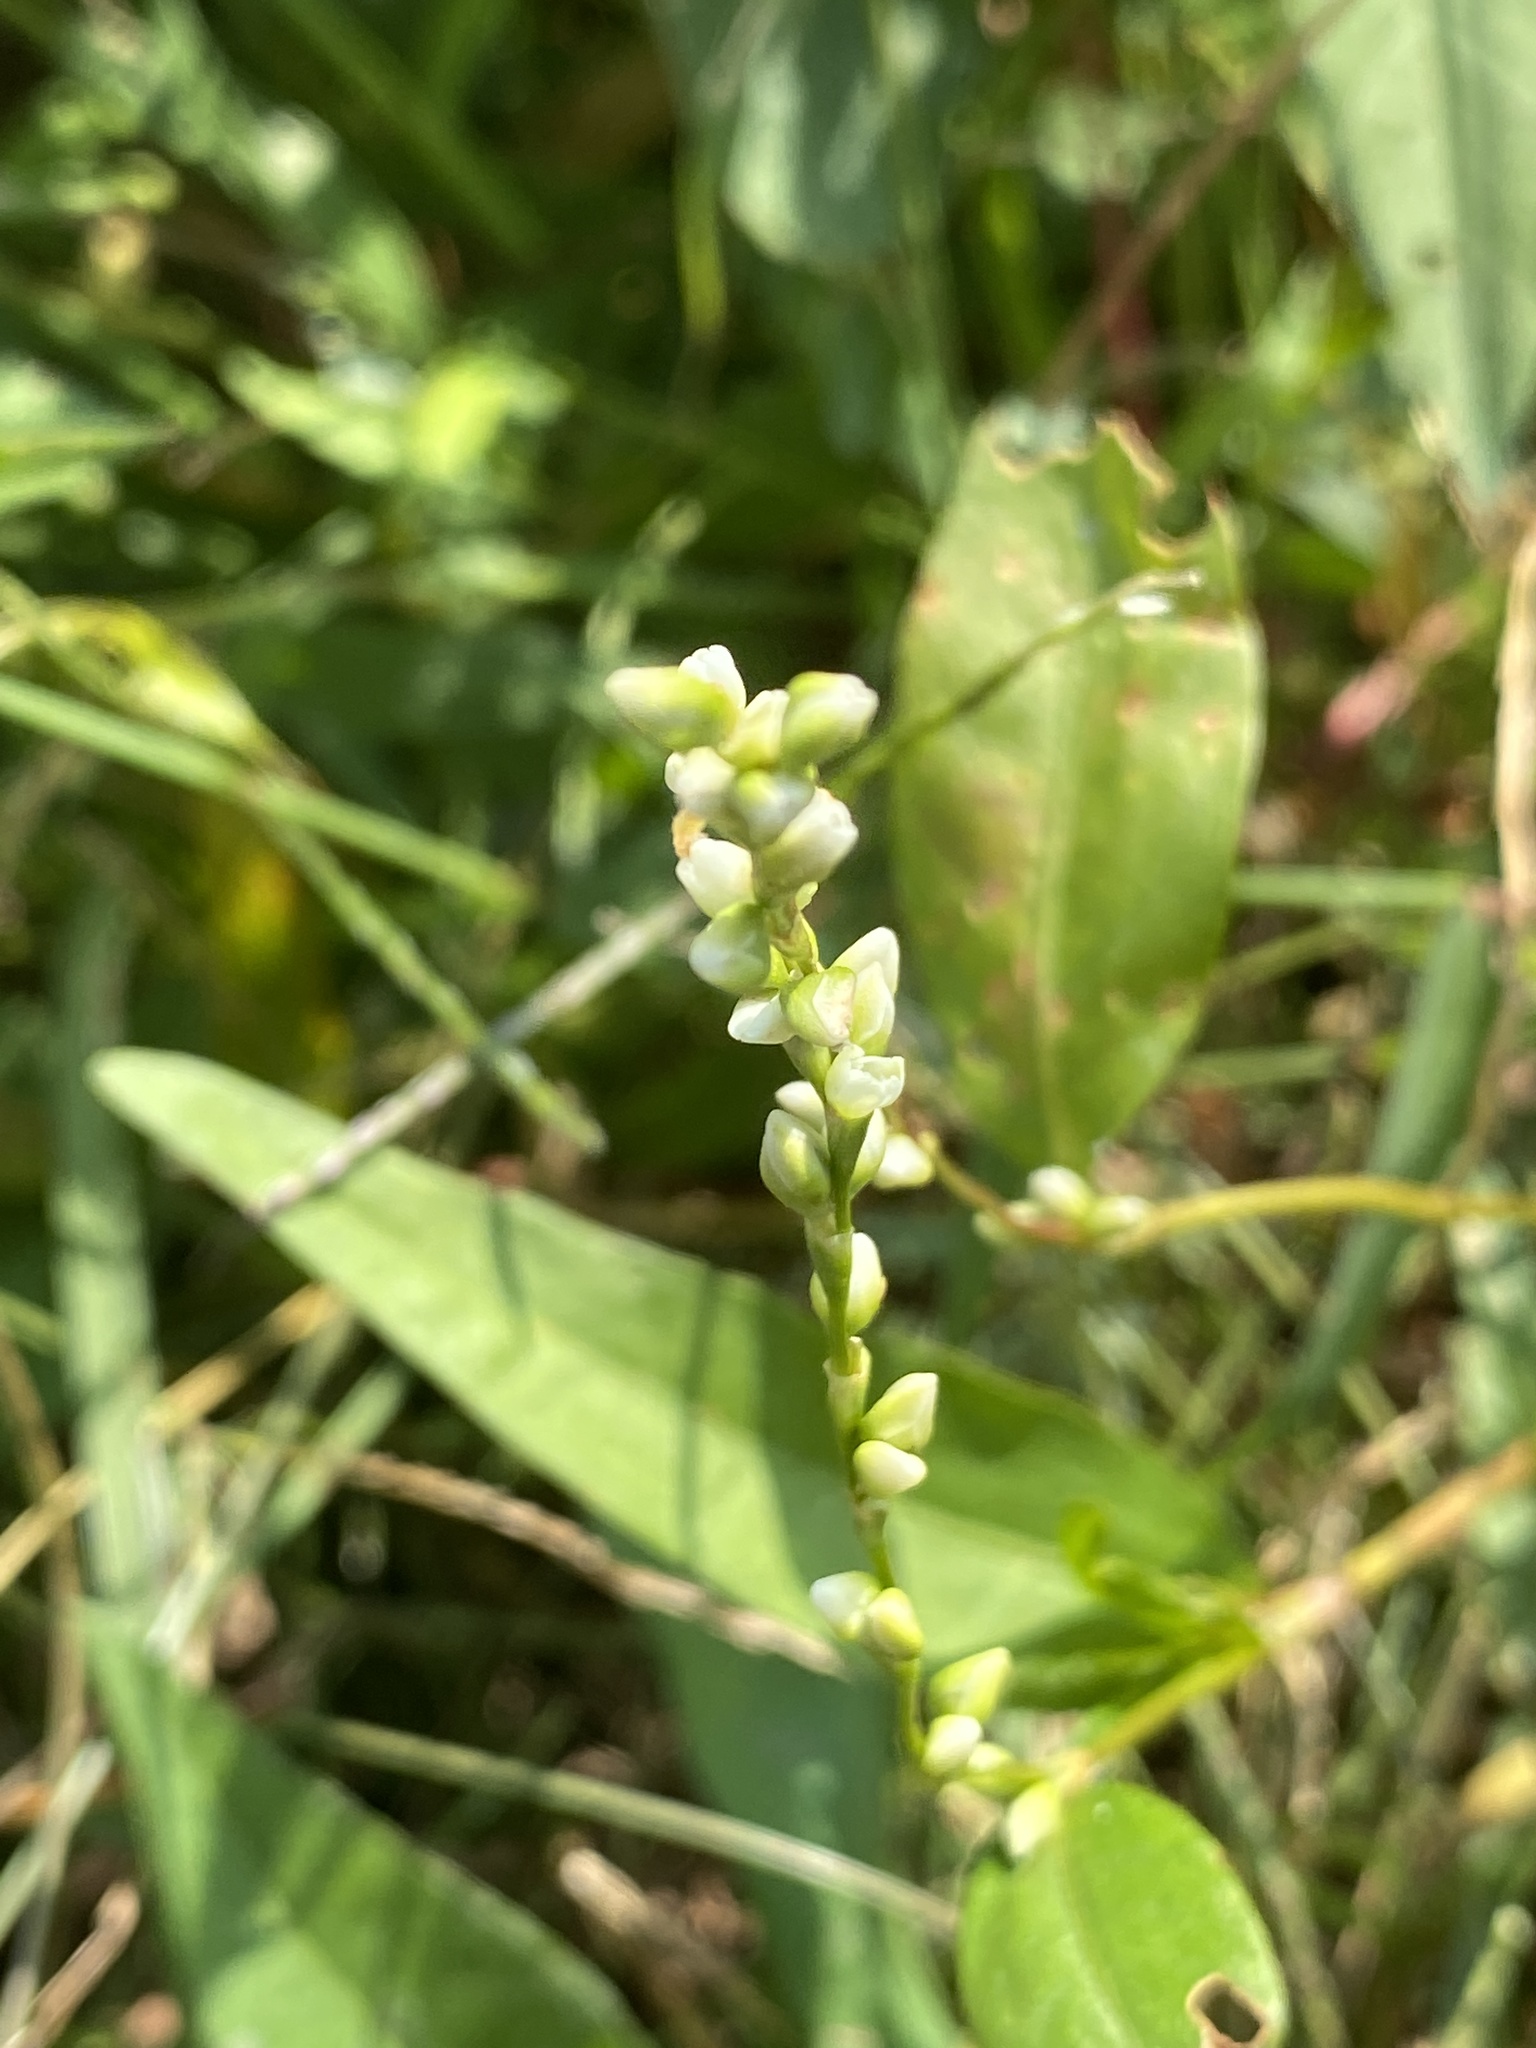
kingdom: Plantae
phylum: Tracheophyta
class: Magnoliopsida
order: Caryophyllales
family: Polygonaceae
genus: Persicaria
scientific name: Persicaria punctata
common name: Dotted smartweed
